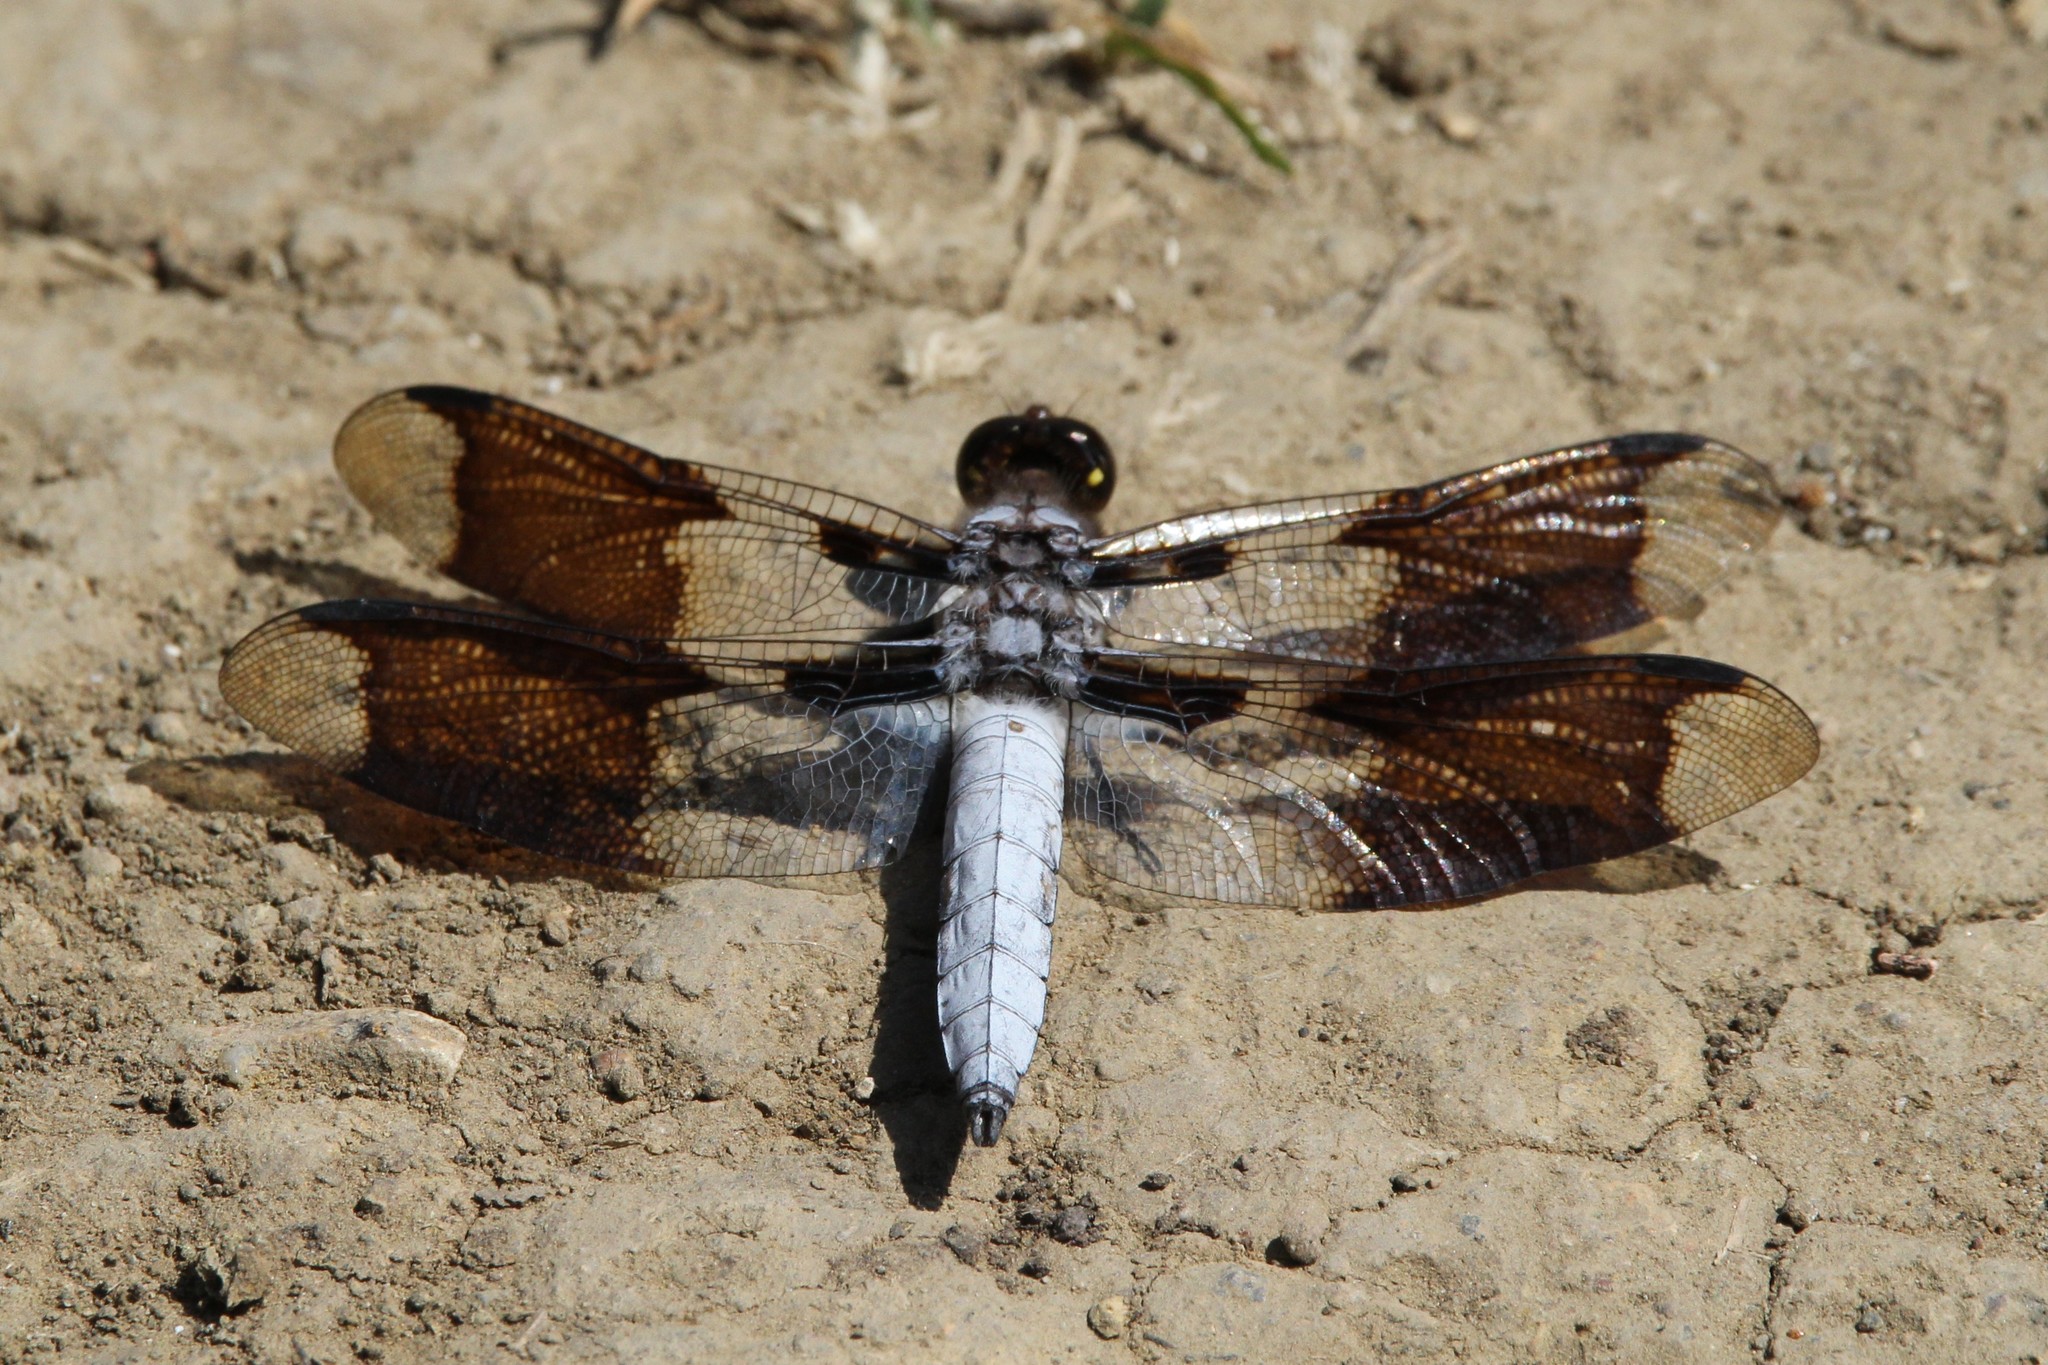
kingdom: Animalia
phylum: Arthropoda
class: Insecta
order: Odonata
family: Libellulidae
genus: Plathemis
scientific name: Plathemis lydia
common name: Common whitetail
